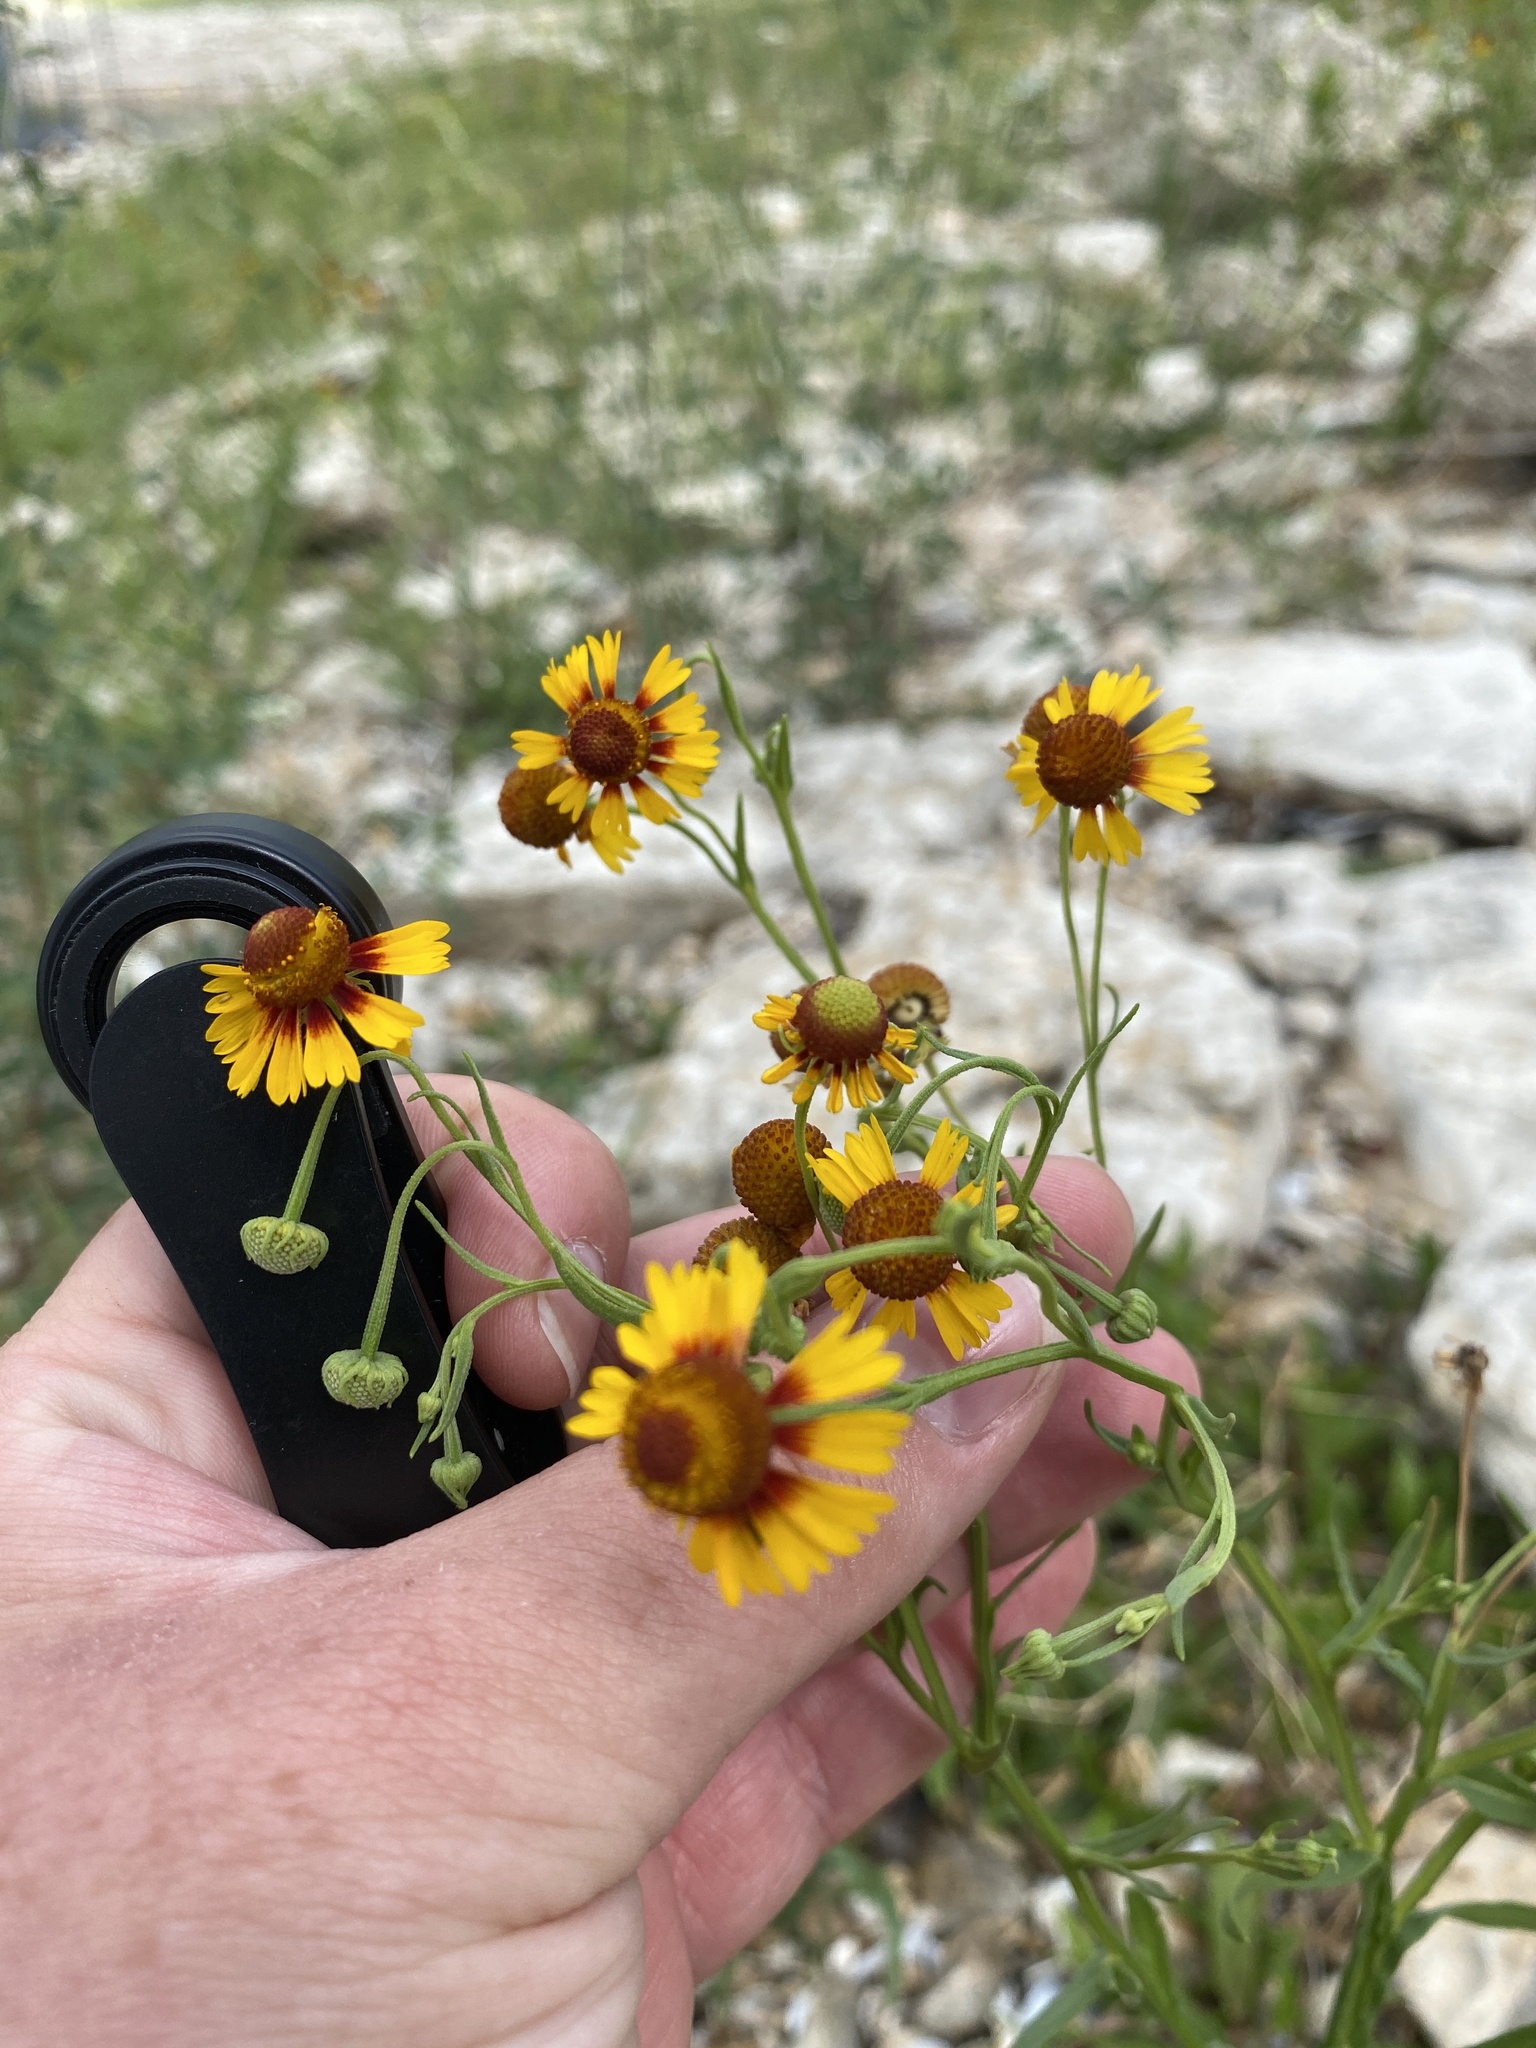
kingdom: Plantae
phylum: Tracheophyta
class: Magnoliopsida
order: Asterales
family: Asteraceae
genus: Helenium
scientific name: Helenium elegans
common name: Pretty sneezeweed
